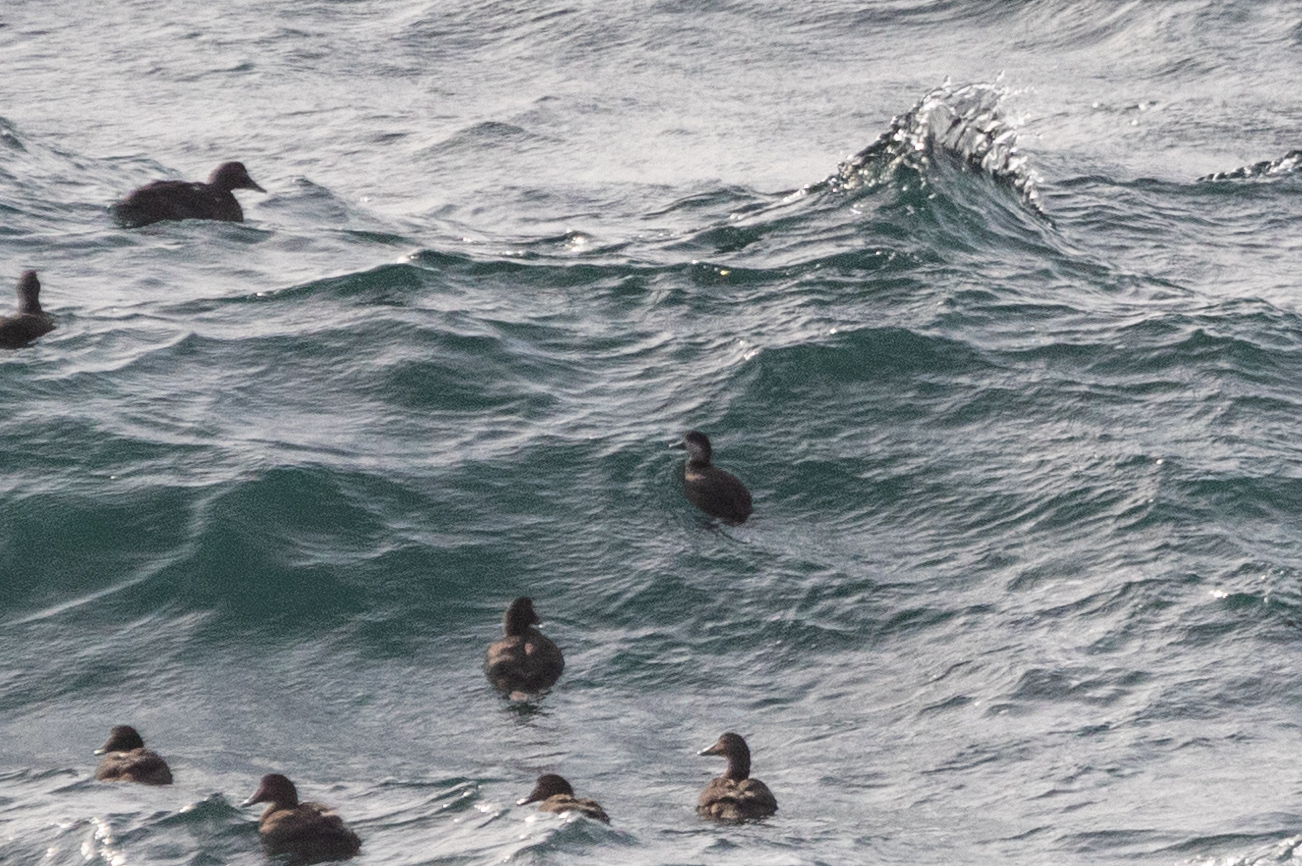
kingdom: Animalia
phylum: Chordata
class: Aves
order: Anseriformes
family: Anatidae
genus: Melanitta
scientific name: Melanitta americana
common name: Black scoter
